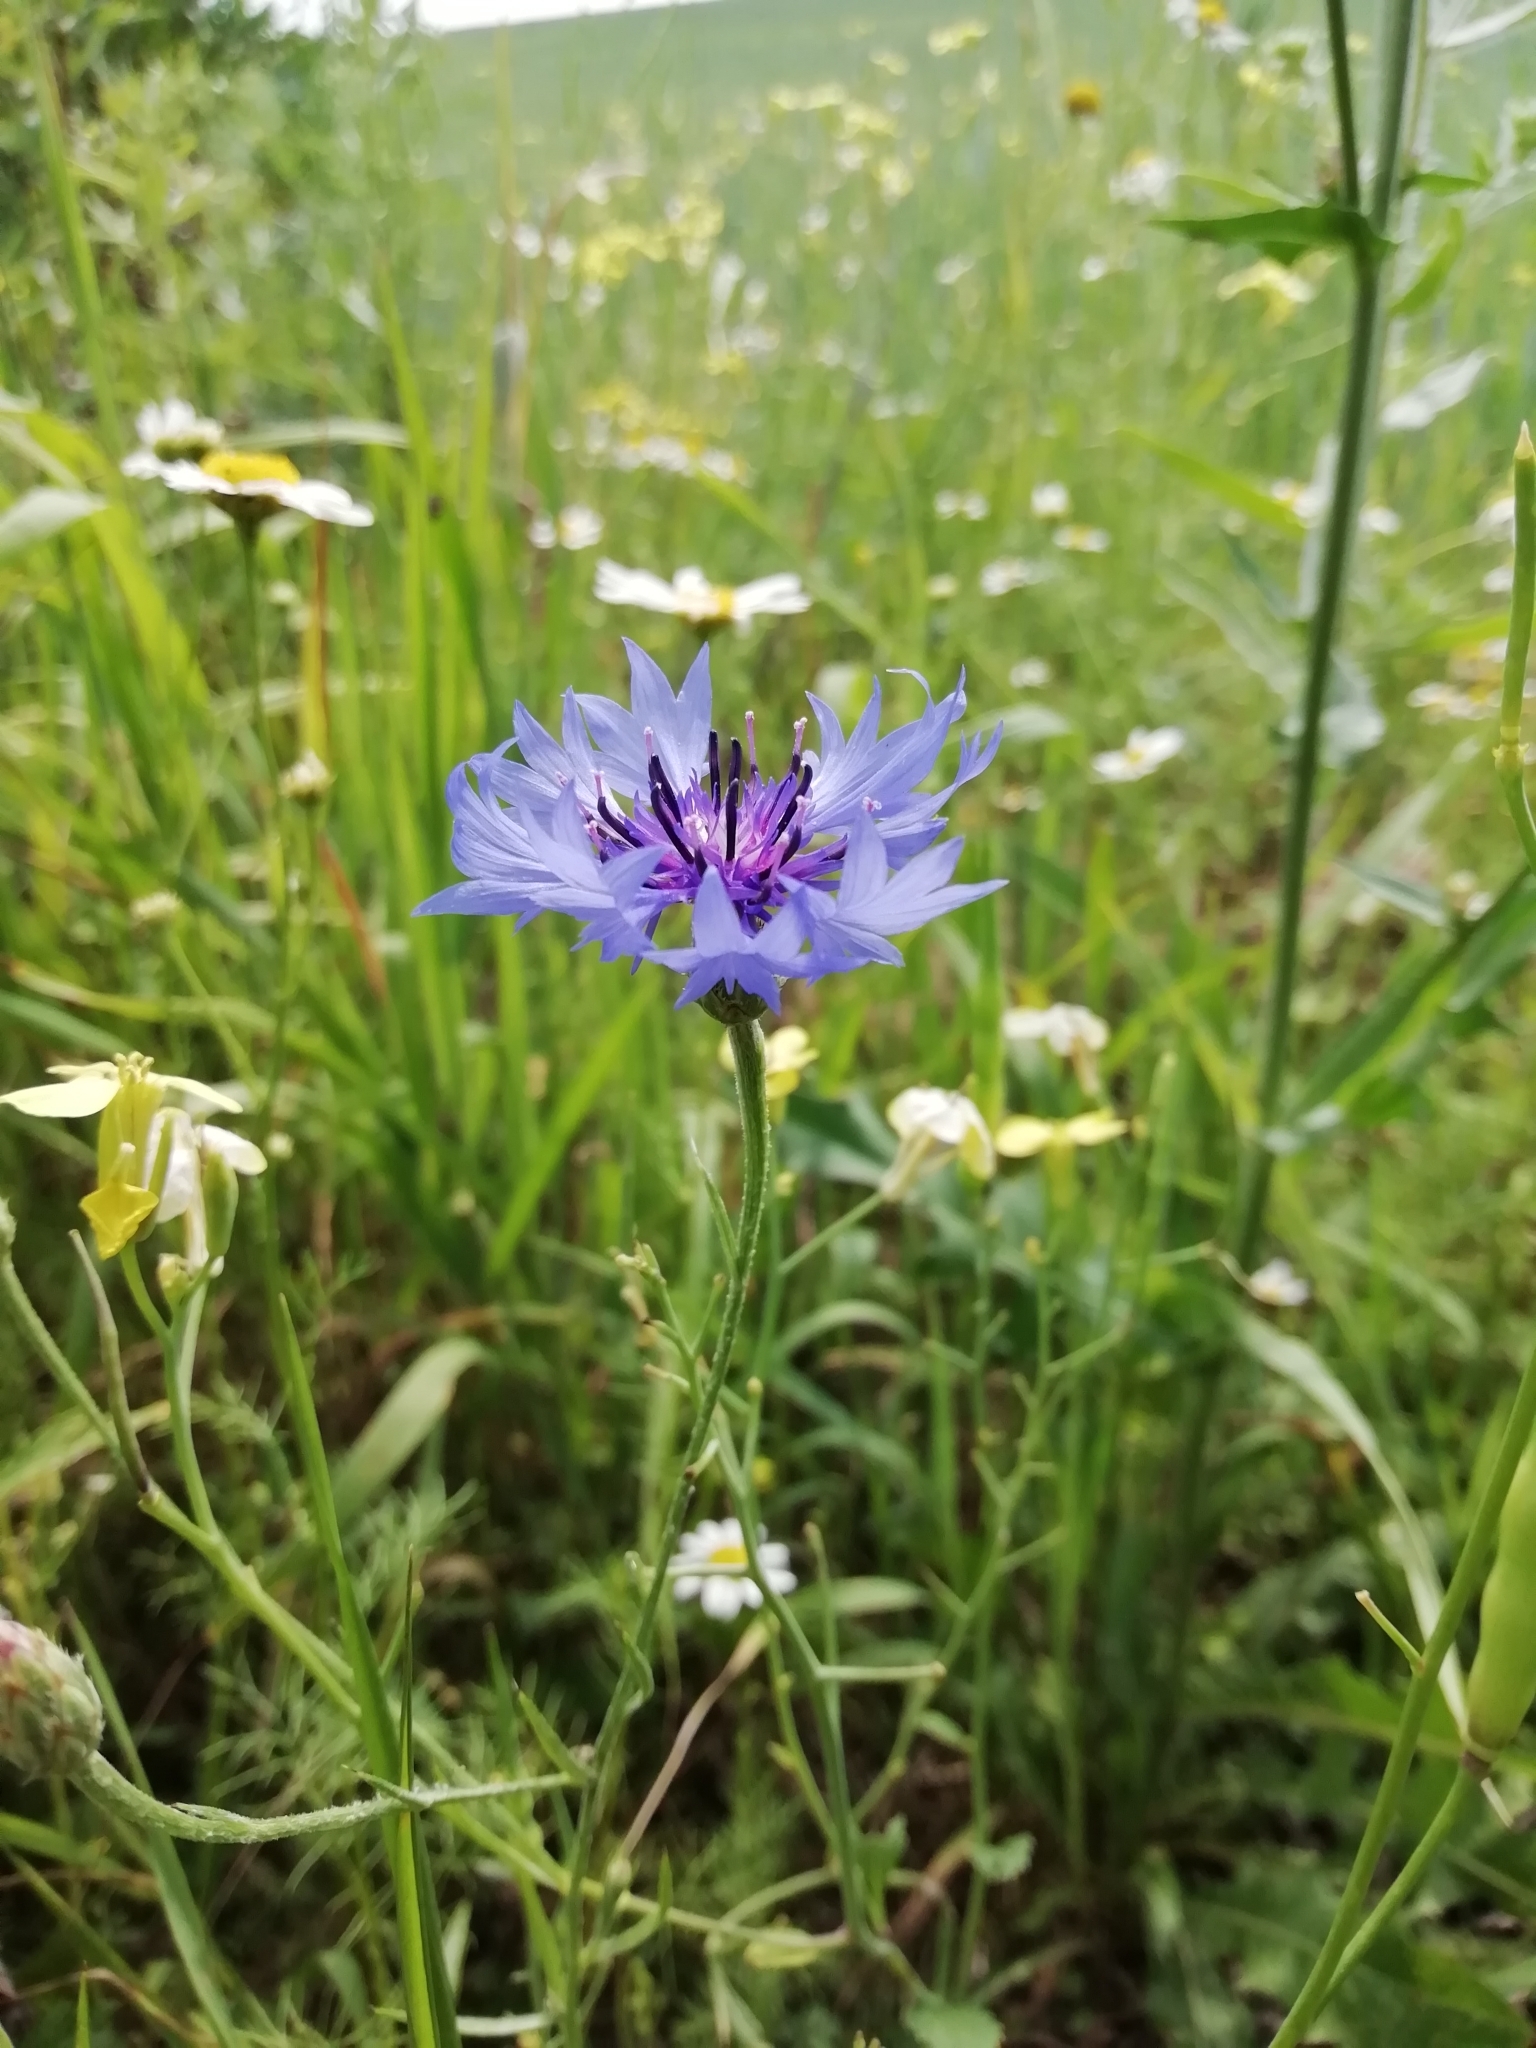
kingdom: Plantae
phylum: Tracheophyta
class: Magnoliopsida
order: Asterales
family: Asteraceae
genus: Centaurea
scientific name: Centaurea cyanus
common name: Cornflower
